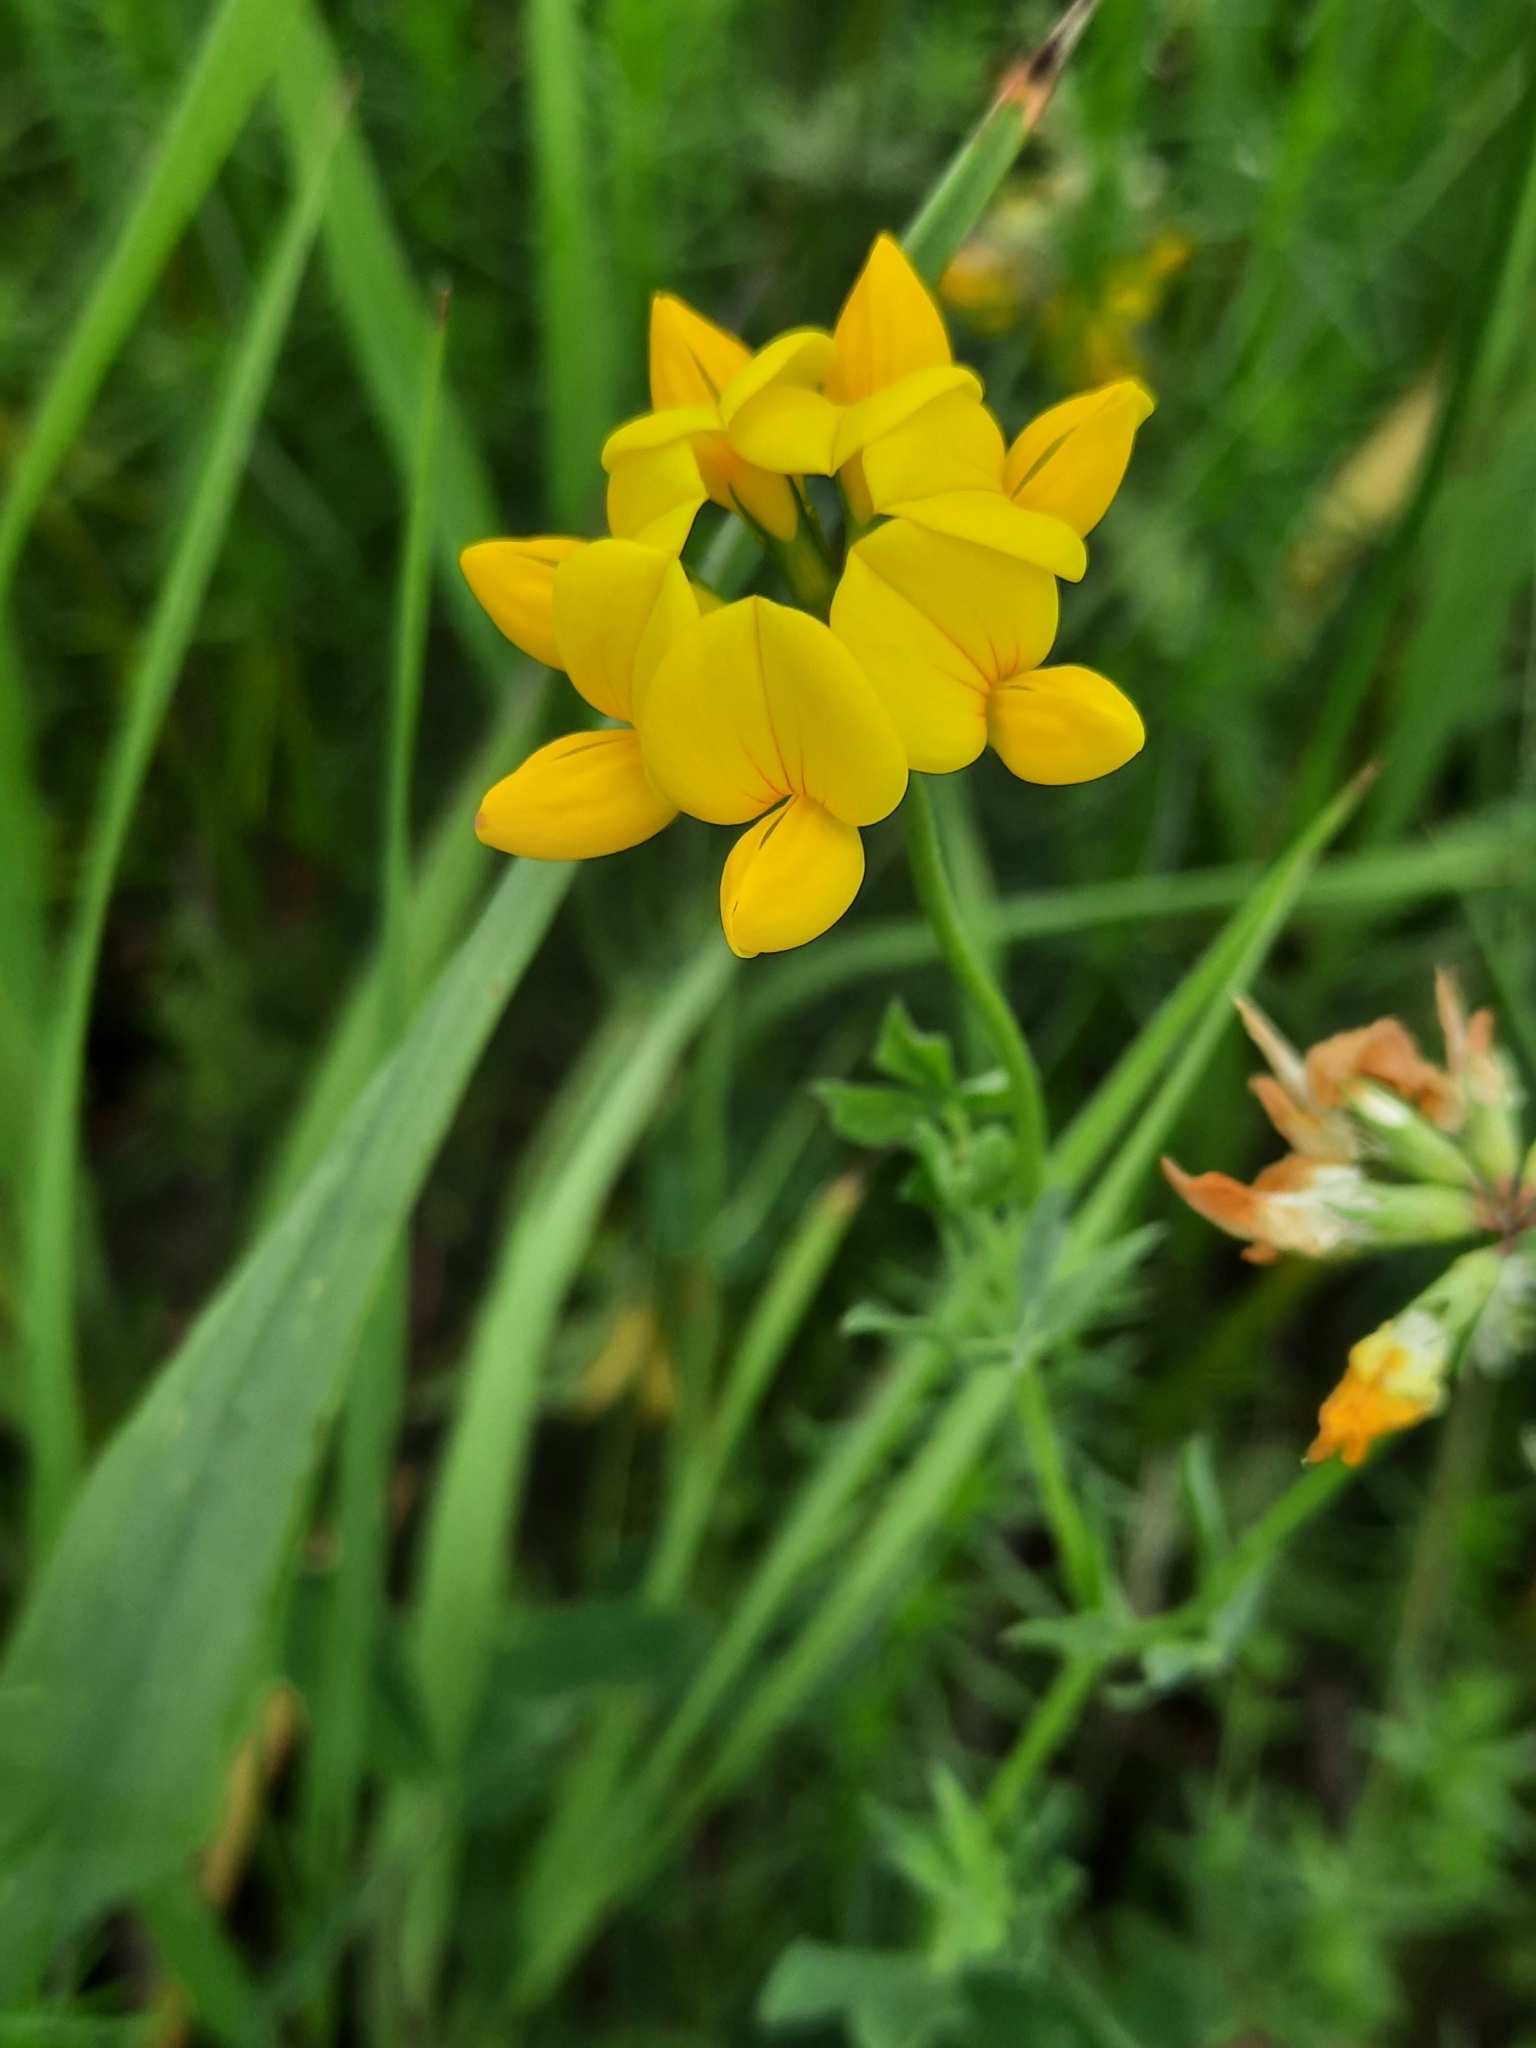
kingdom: Plantae
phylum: Tracheophyta
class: Magnoliopsida
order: Fabales
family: Fabaceae
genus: Lotus
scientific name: Lotus corniculatus
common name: Common bird's-foot-trefoil
